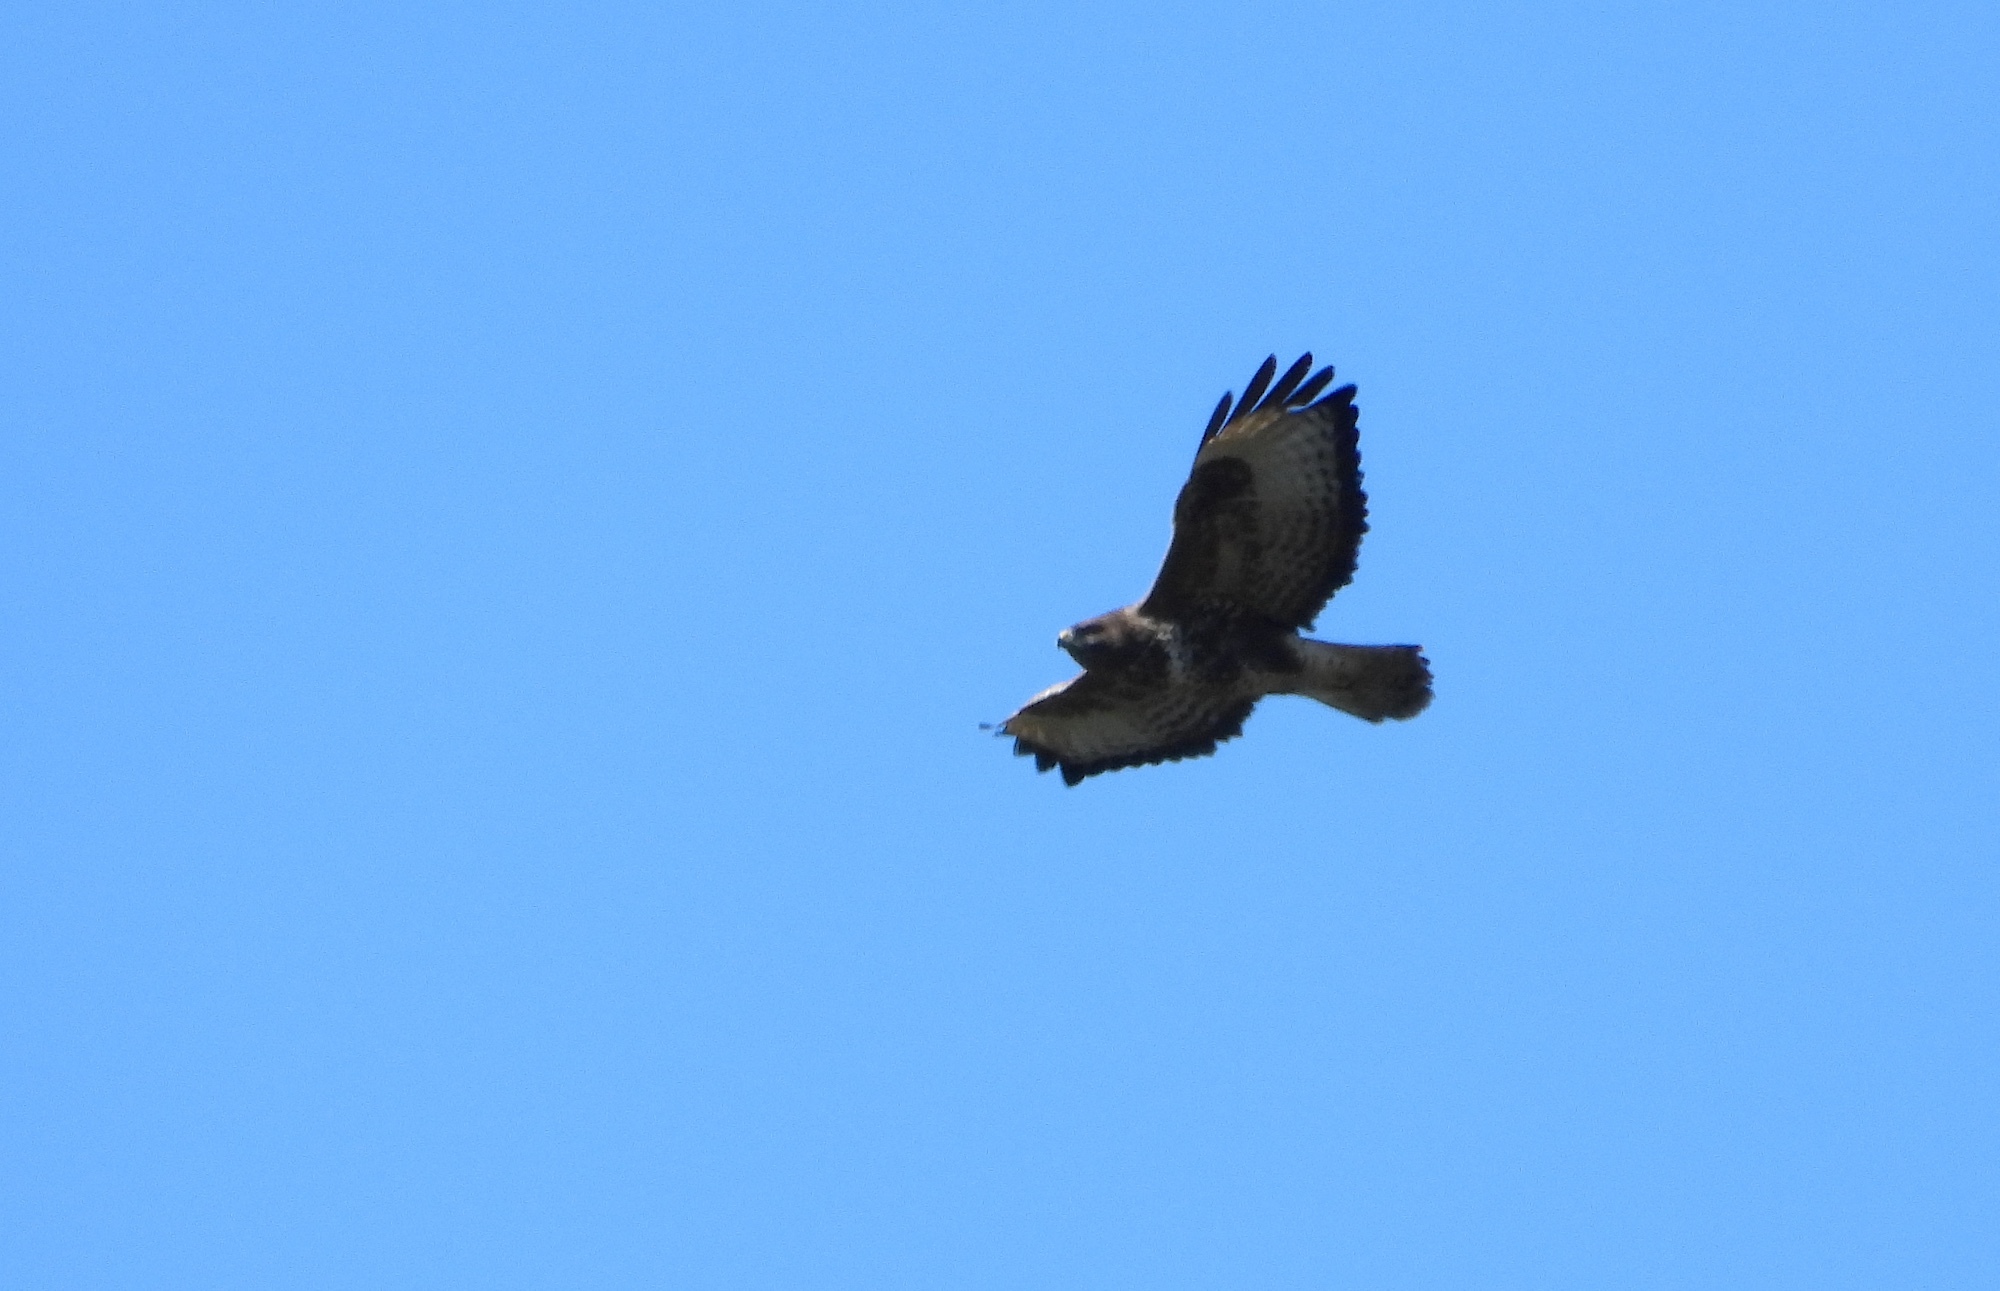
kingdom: Animalia
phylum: Chordata
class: Aves
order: Accipitriformes
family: Accipitridae
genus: Buteo
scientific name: Buteo buteo
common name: Common buzzard
